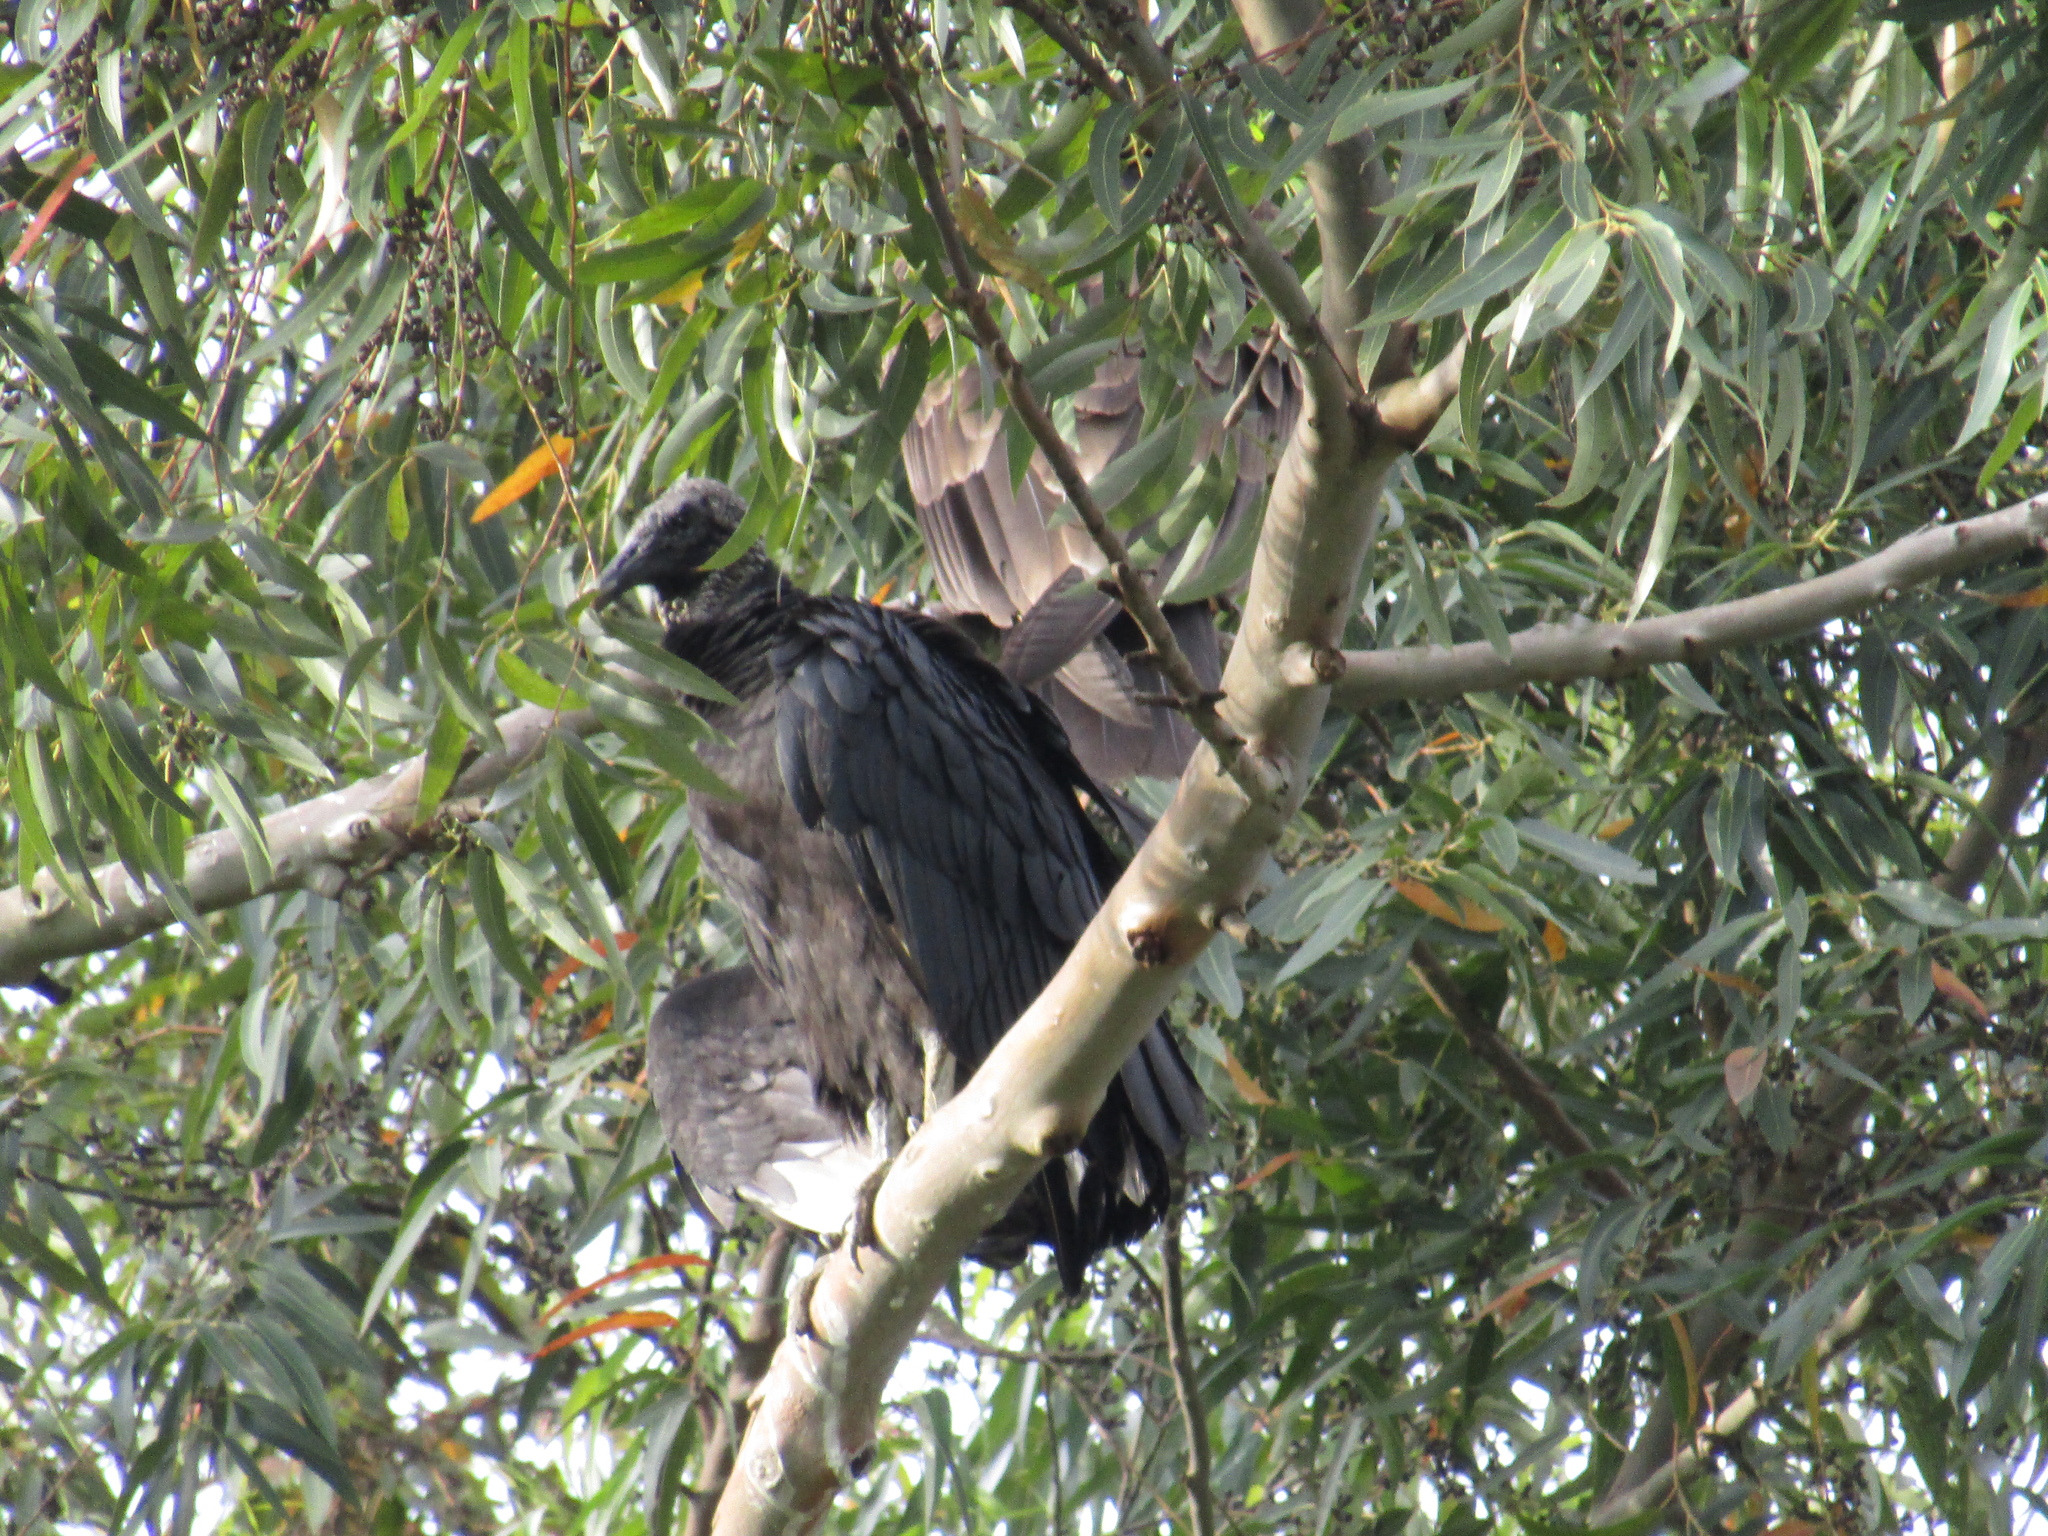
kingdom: Animalia
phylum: Chordata
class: Aves
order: Accipitriformes
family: Cathartidae
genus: Coragyps
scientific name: Coragyps atratus
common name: Black vulture
